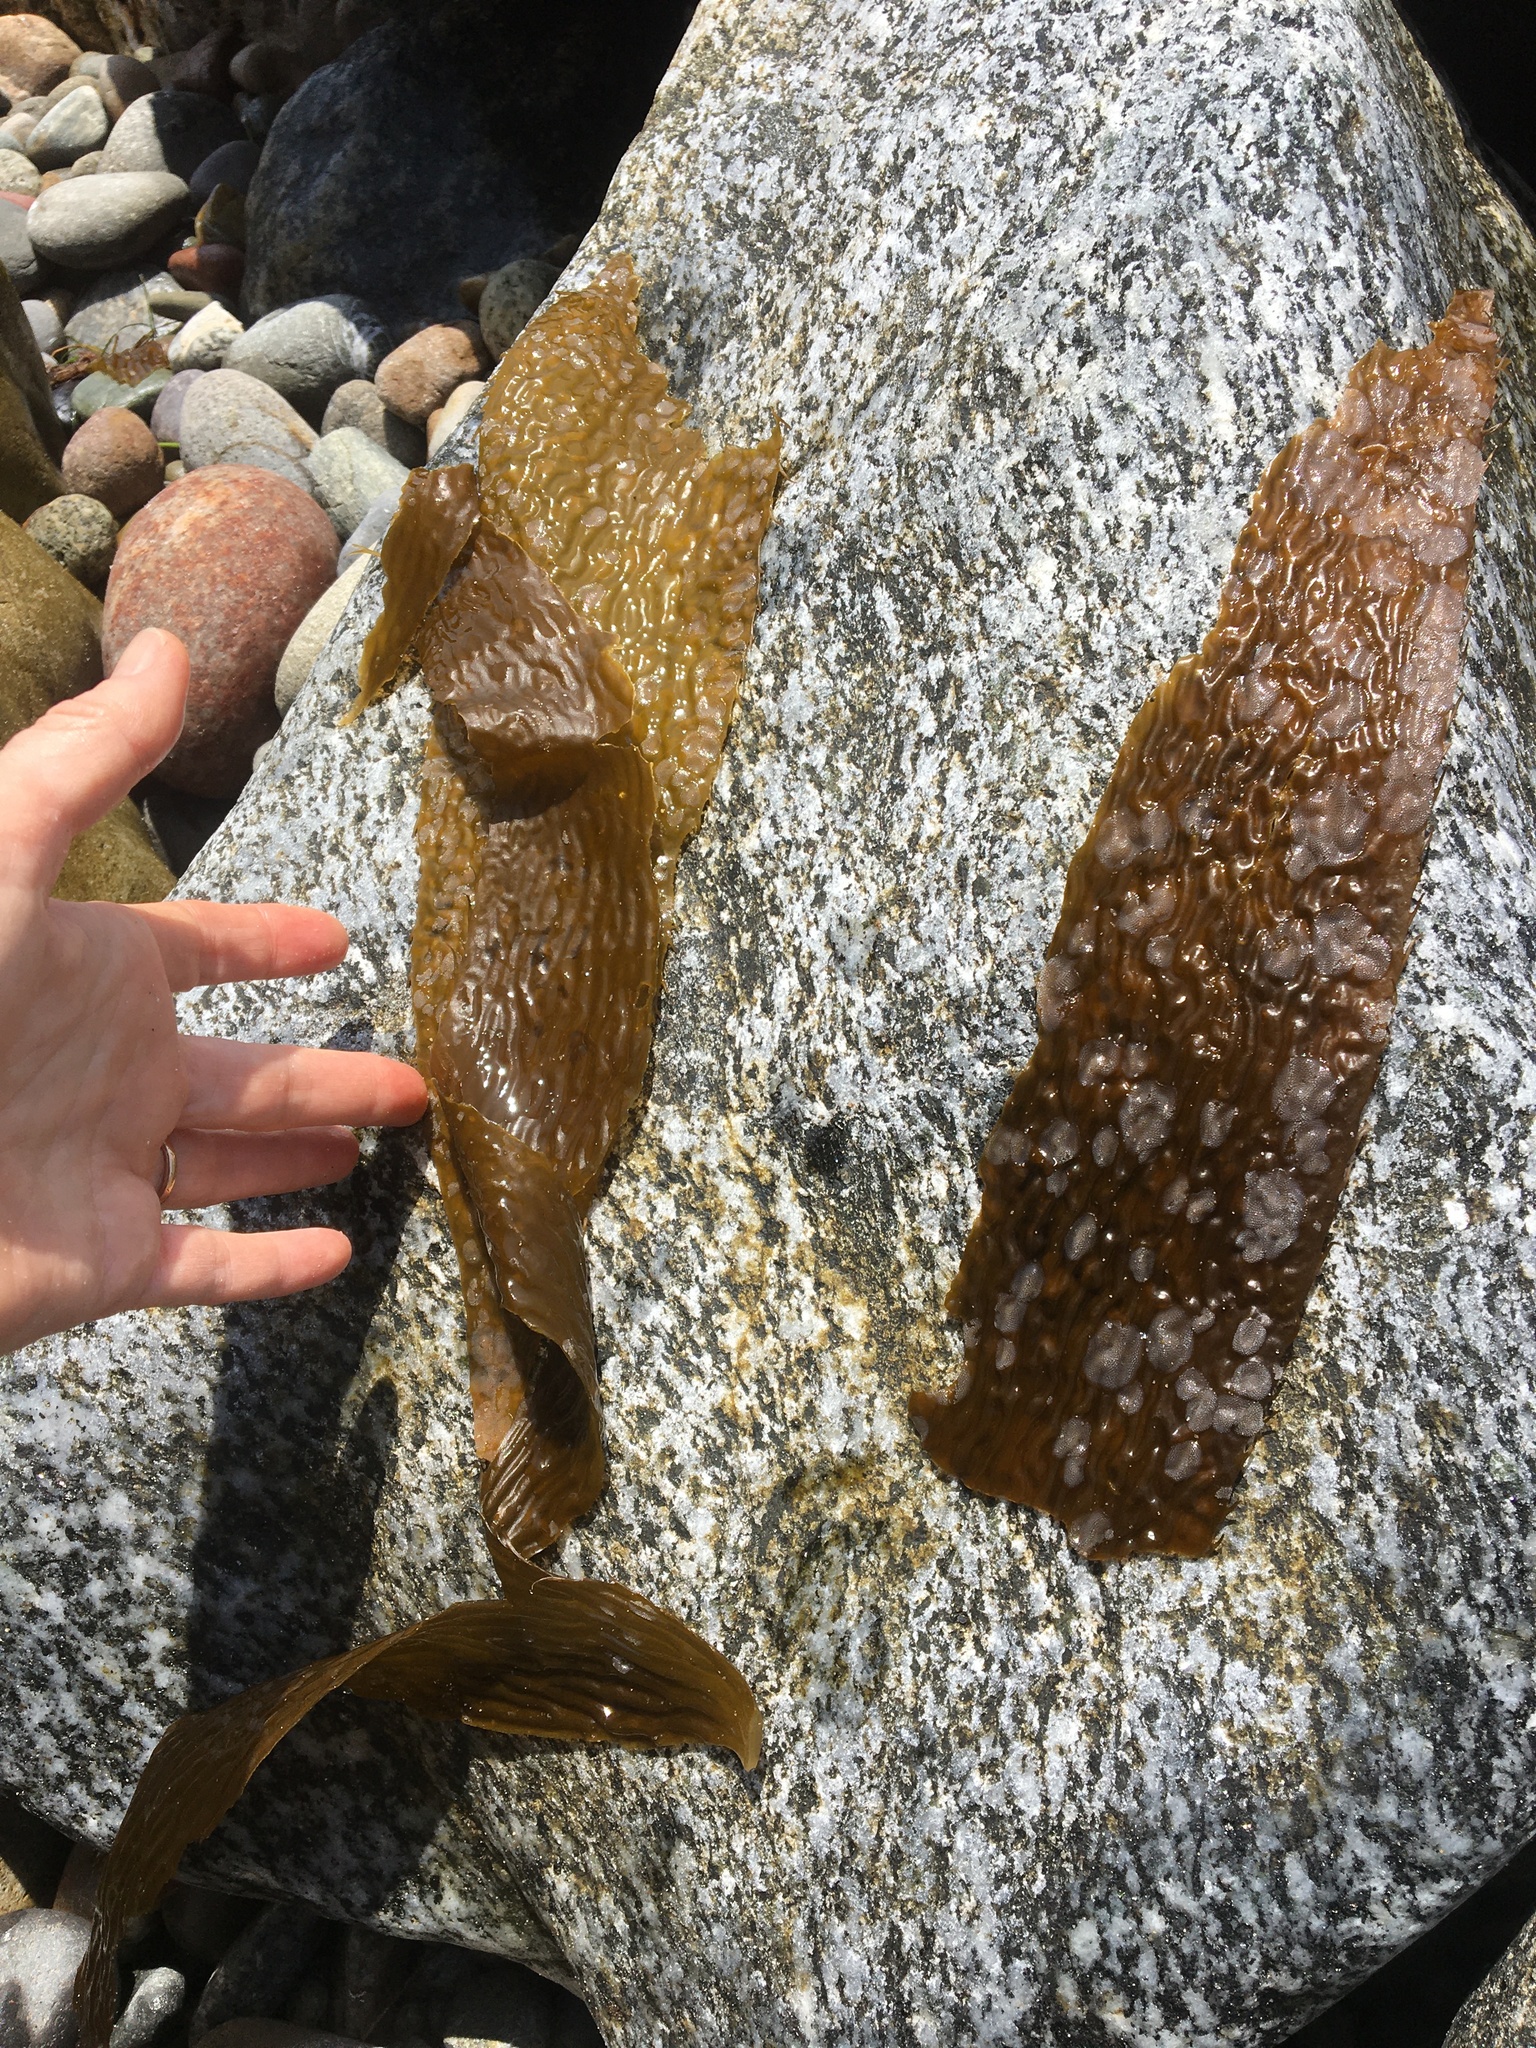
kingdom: Chromista
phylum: Ochrophyta
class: Phaeophyceae
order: Laminariales
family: Laminariaceae
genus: Macrocystis
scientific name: Macrocystis pyrifera
